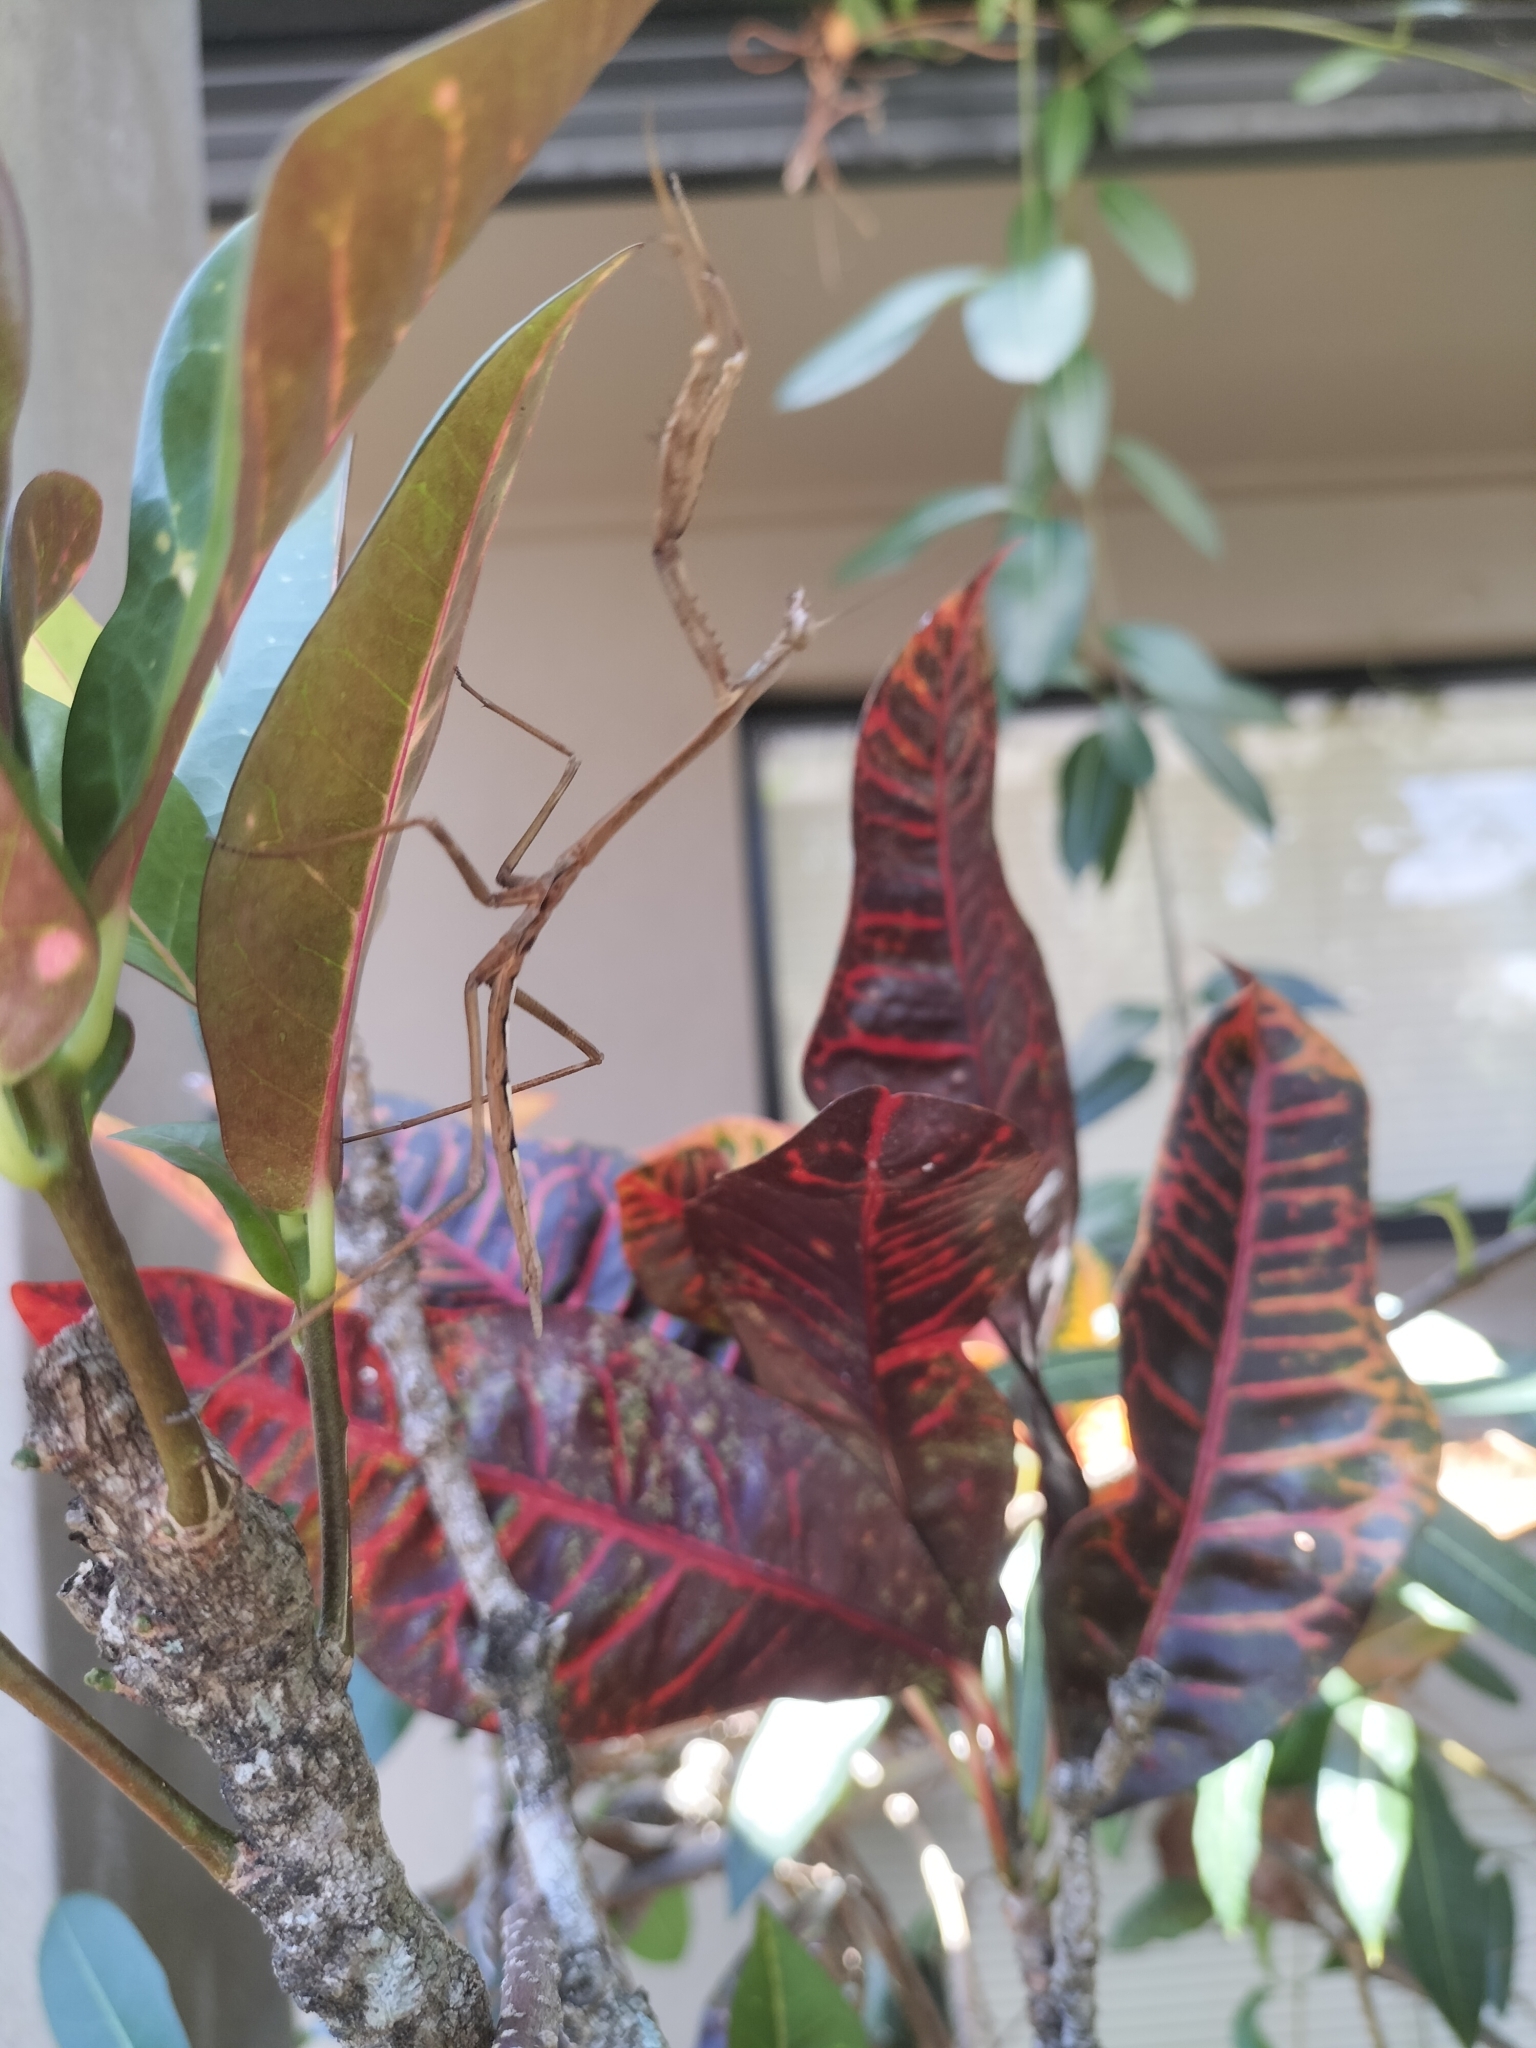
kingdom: Animalia
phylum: Arthropoda
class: Insecta
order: Mantodea
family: Mantidae
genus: Archimantis
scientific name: Archimantis latistyla
